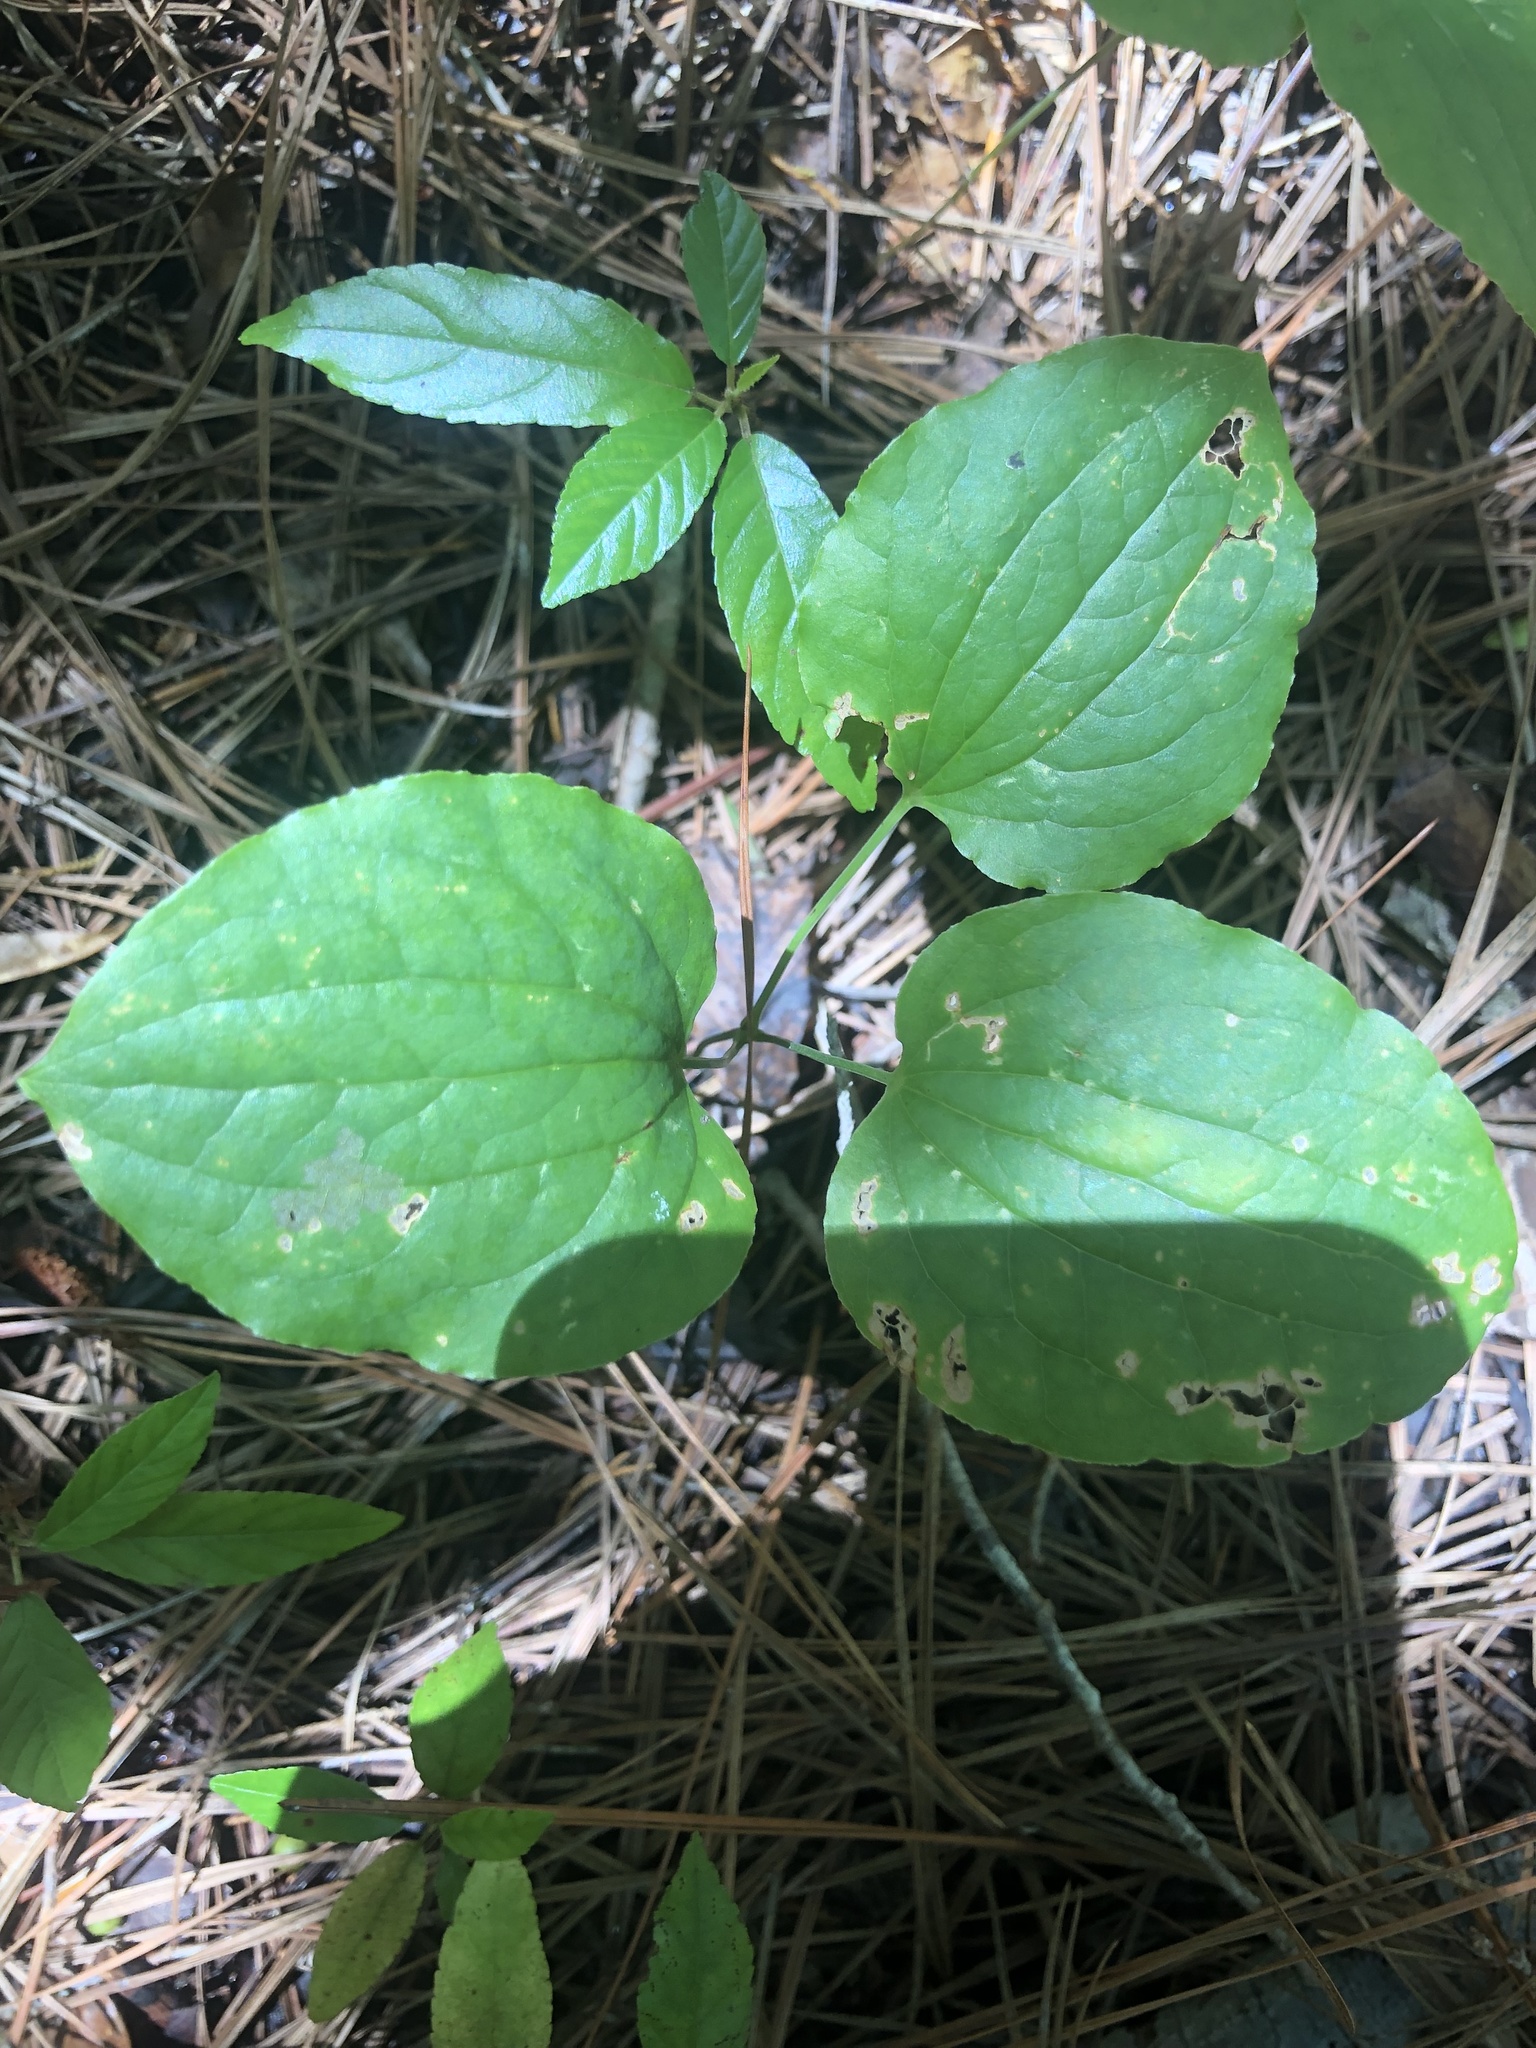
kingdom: Plantae
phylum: Tracheophyta
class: Liliopsida
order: Liliales
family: Smilacaceae
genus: Smilax
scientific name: Smilax lasioneura
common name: Blue ridge carrionflower
